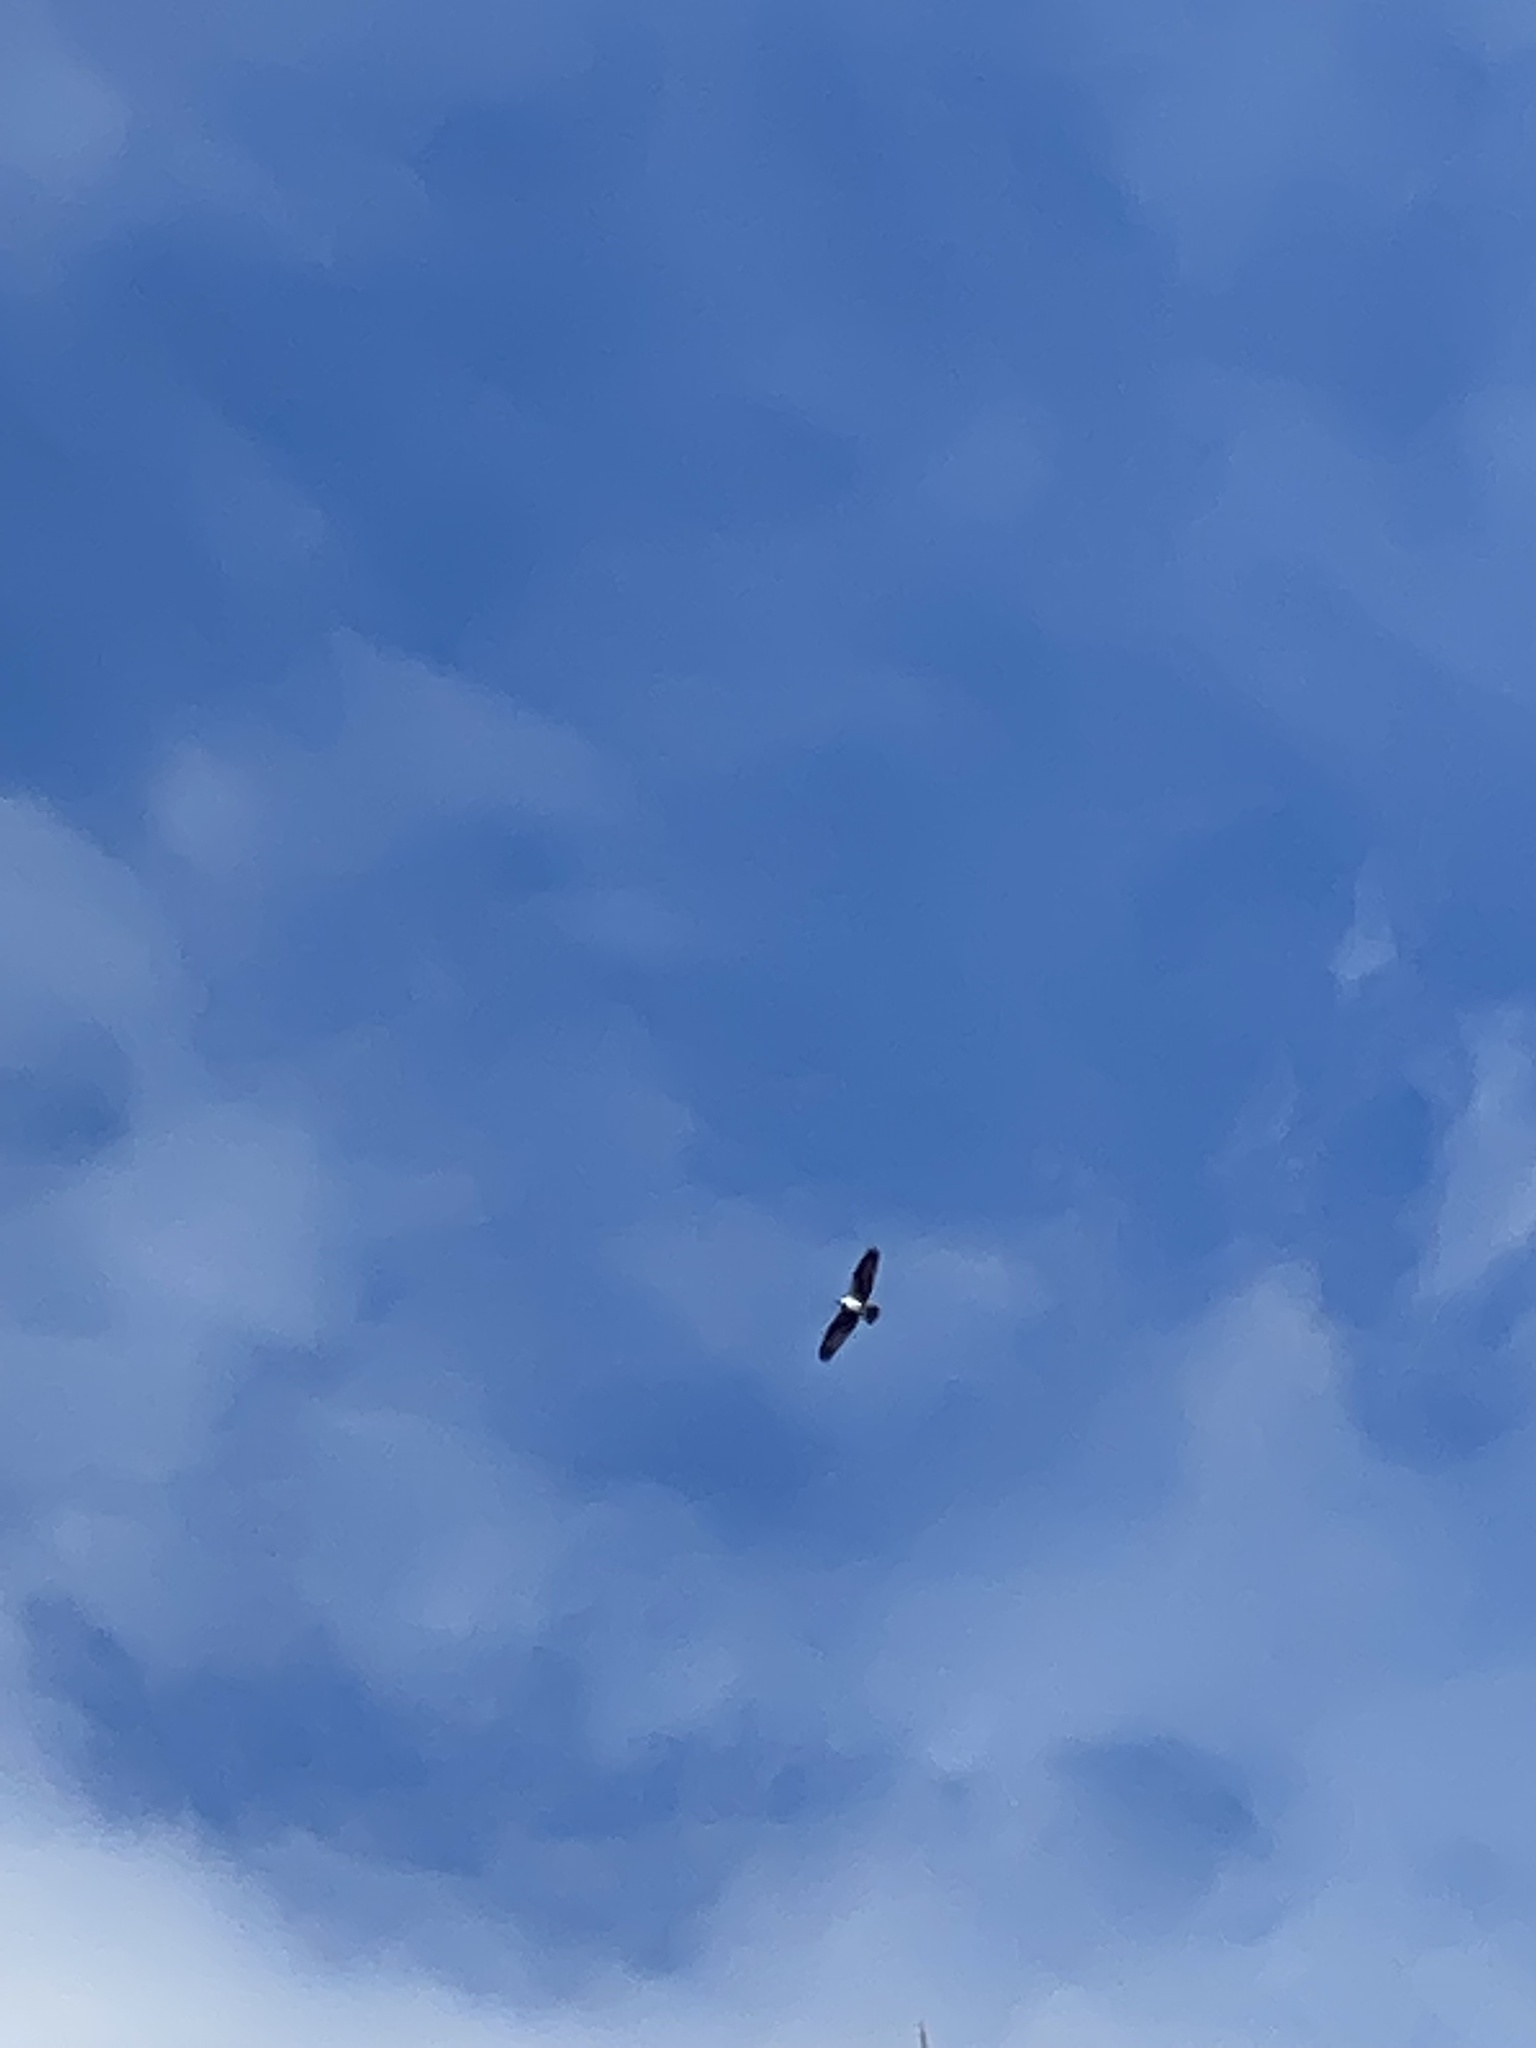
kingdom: Animalia
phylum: Chordata
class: Aves
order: Accipitriformes
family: Pandionidae
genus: Pandion
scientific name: Pandion haliaetus
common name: Osprey
